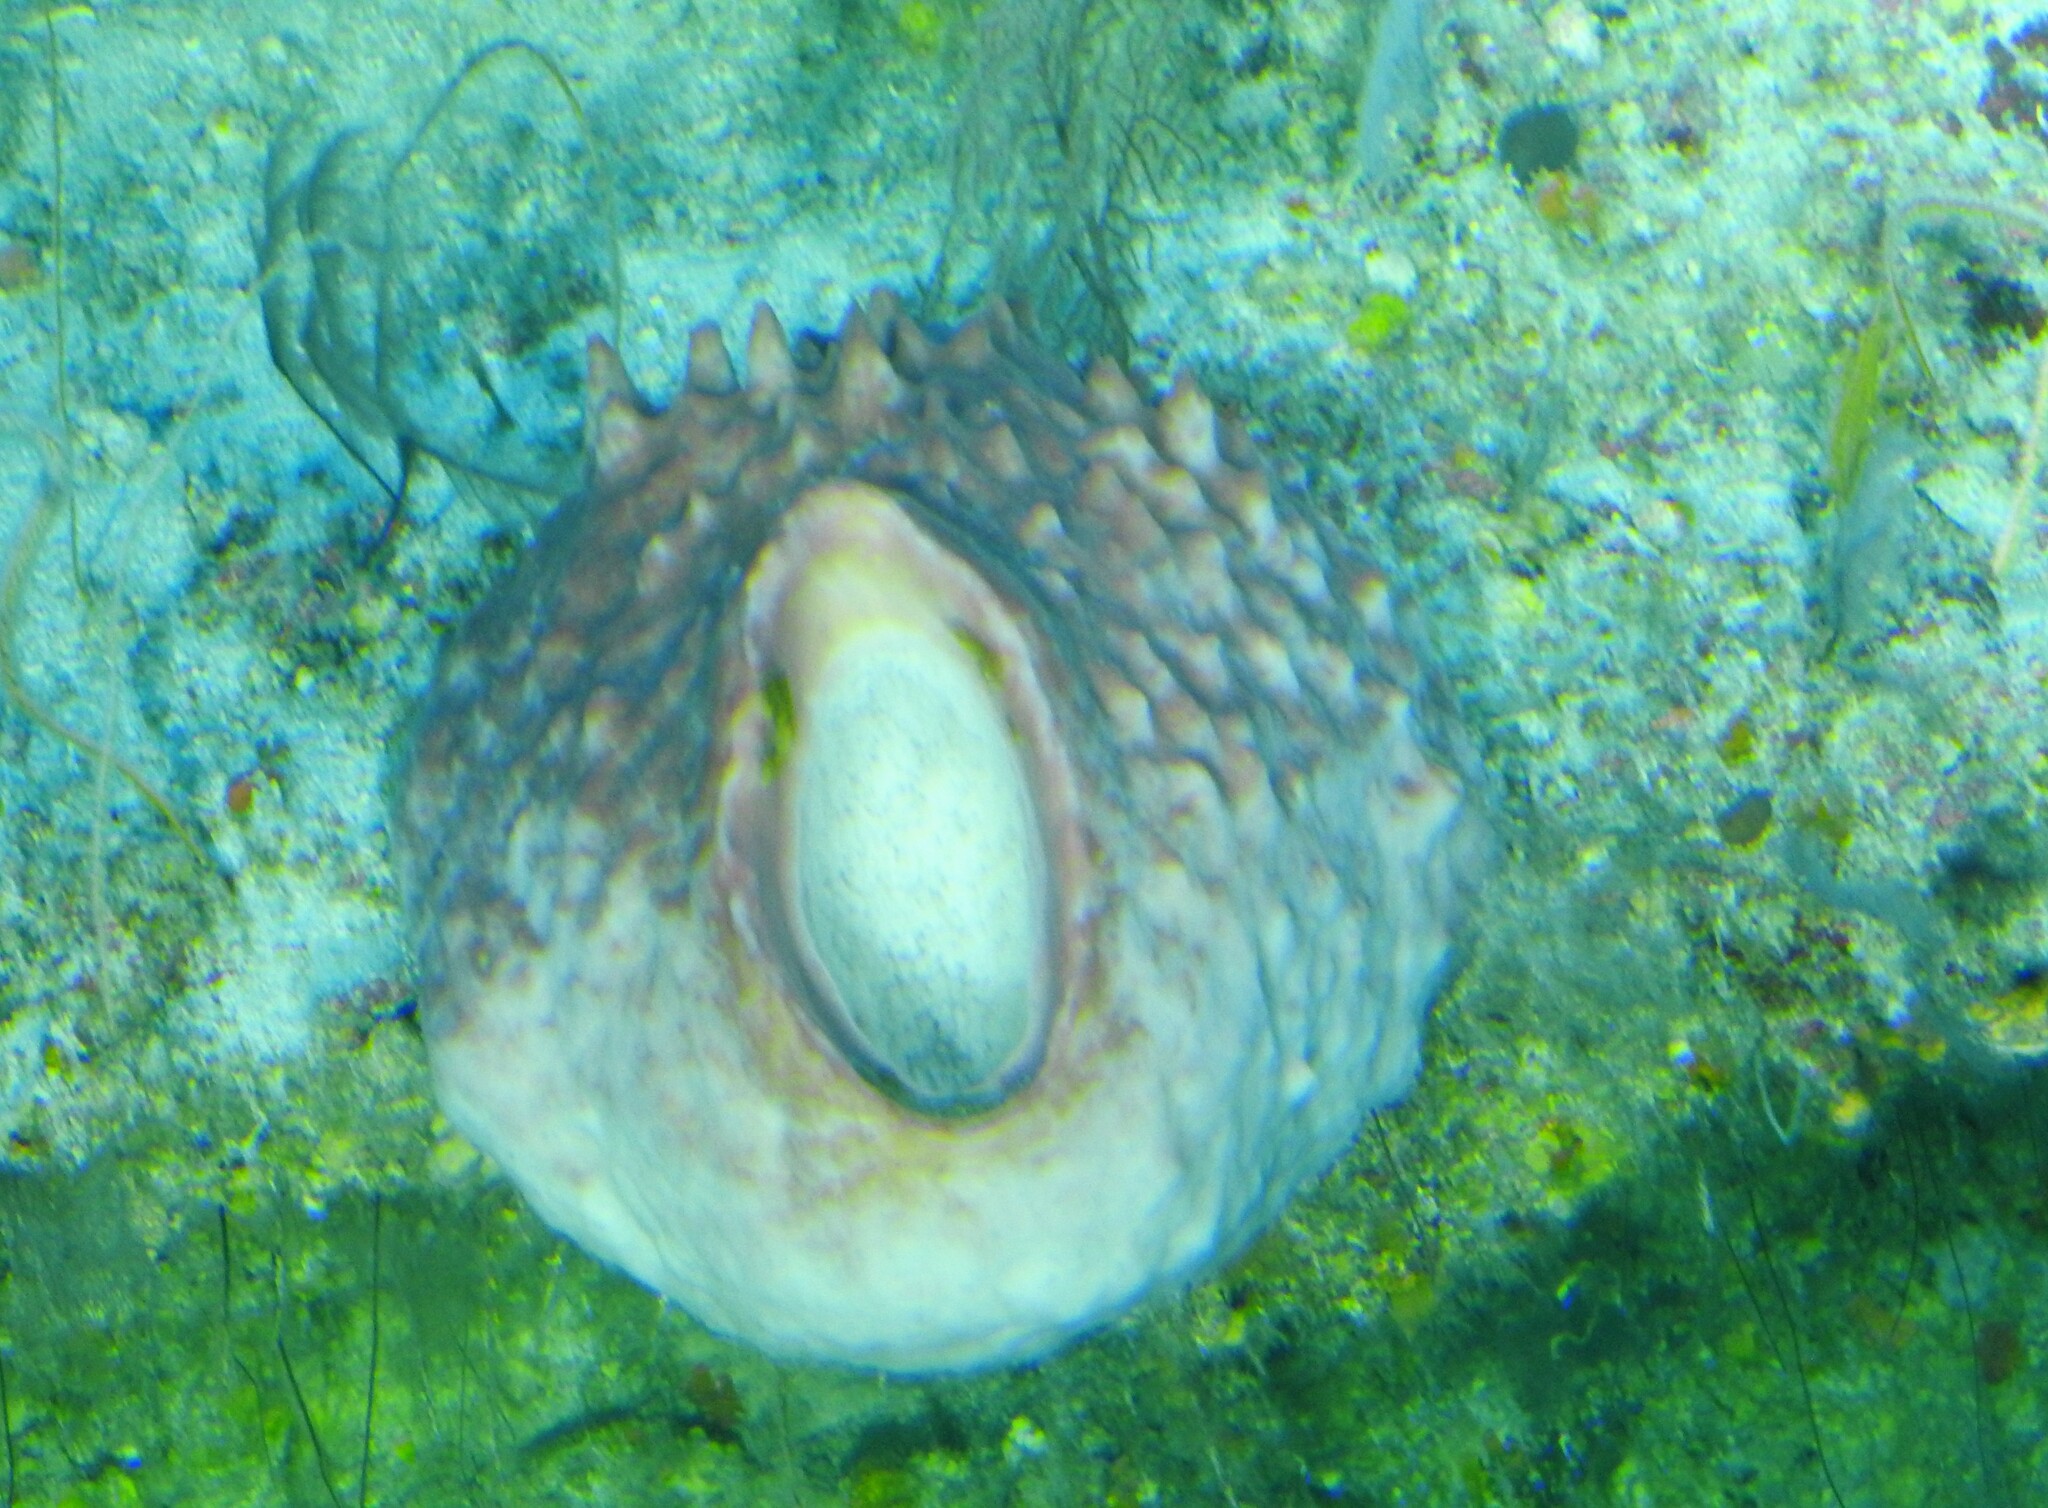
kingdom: Animalia
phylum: Porifera
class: Demospongiae
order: Haplosclerida
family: Petrosiidae
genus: Xestospongia
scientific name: Xestospongia muta
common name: Giant barrel sponge
